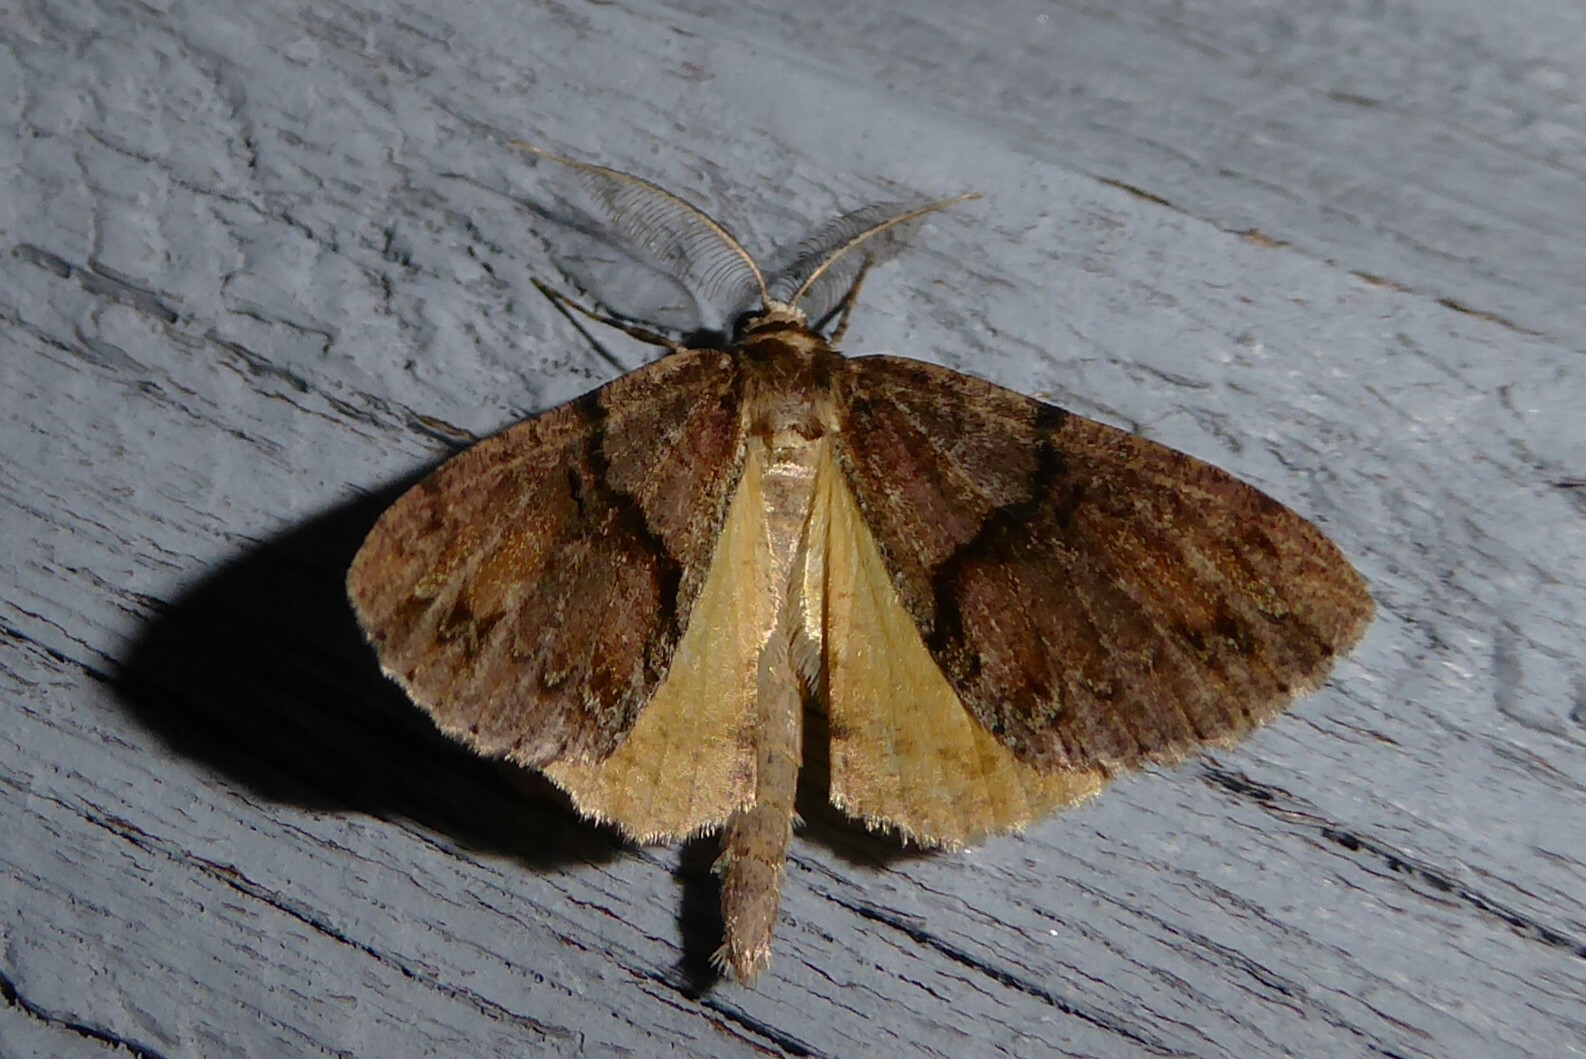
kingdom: Animalia
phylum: Arthropoda
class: Insecta
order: Lepidoptera
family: Geometridae
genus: Pseudocoremia
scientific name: Pseudocoremia suavis
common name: Common forest looper
